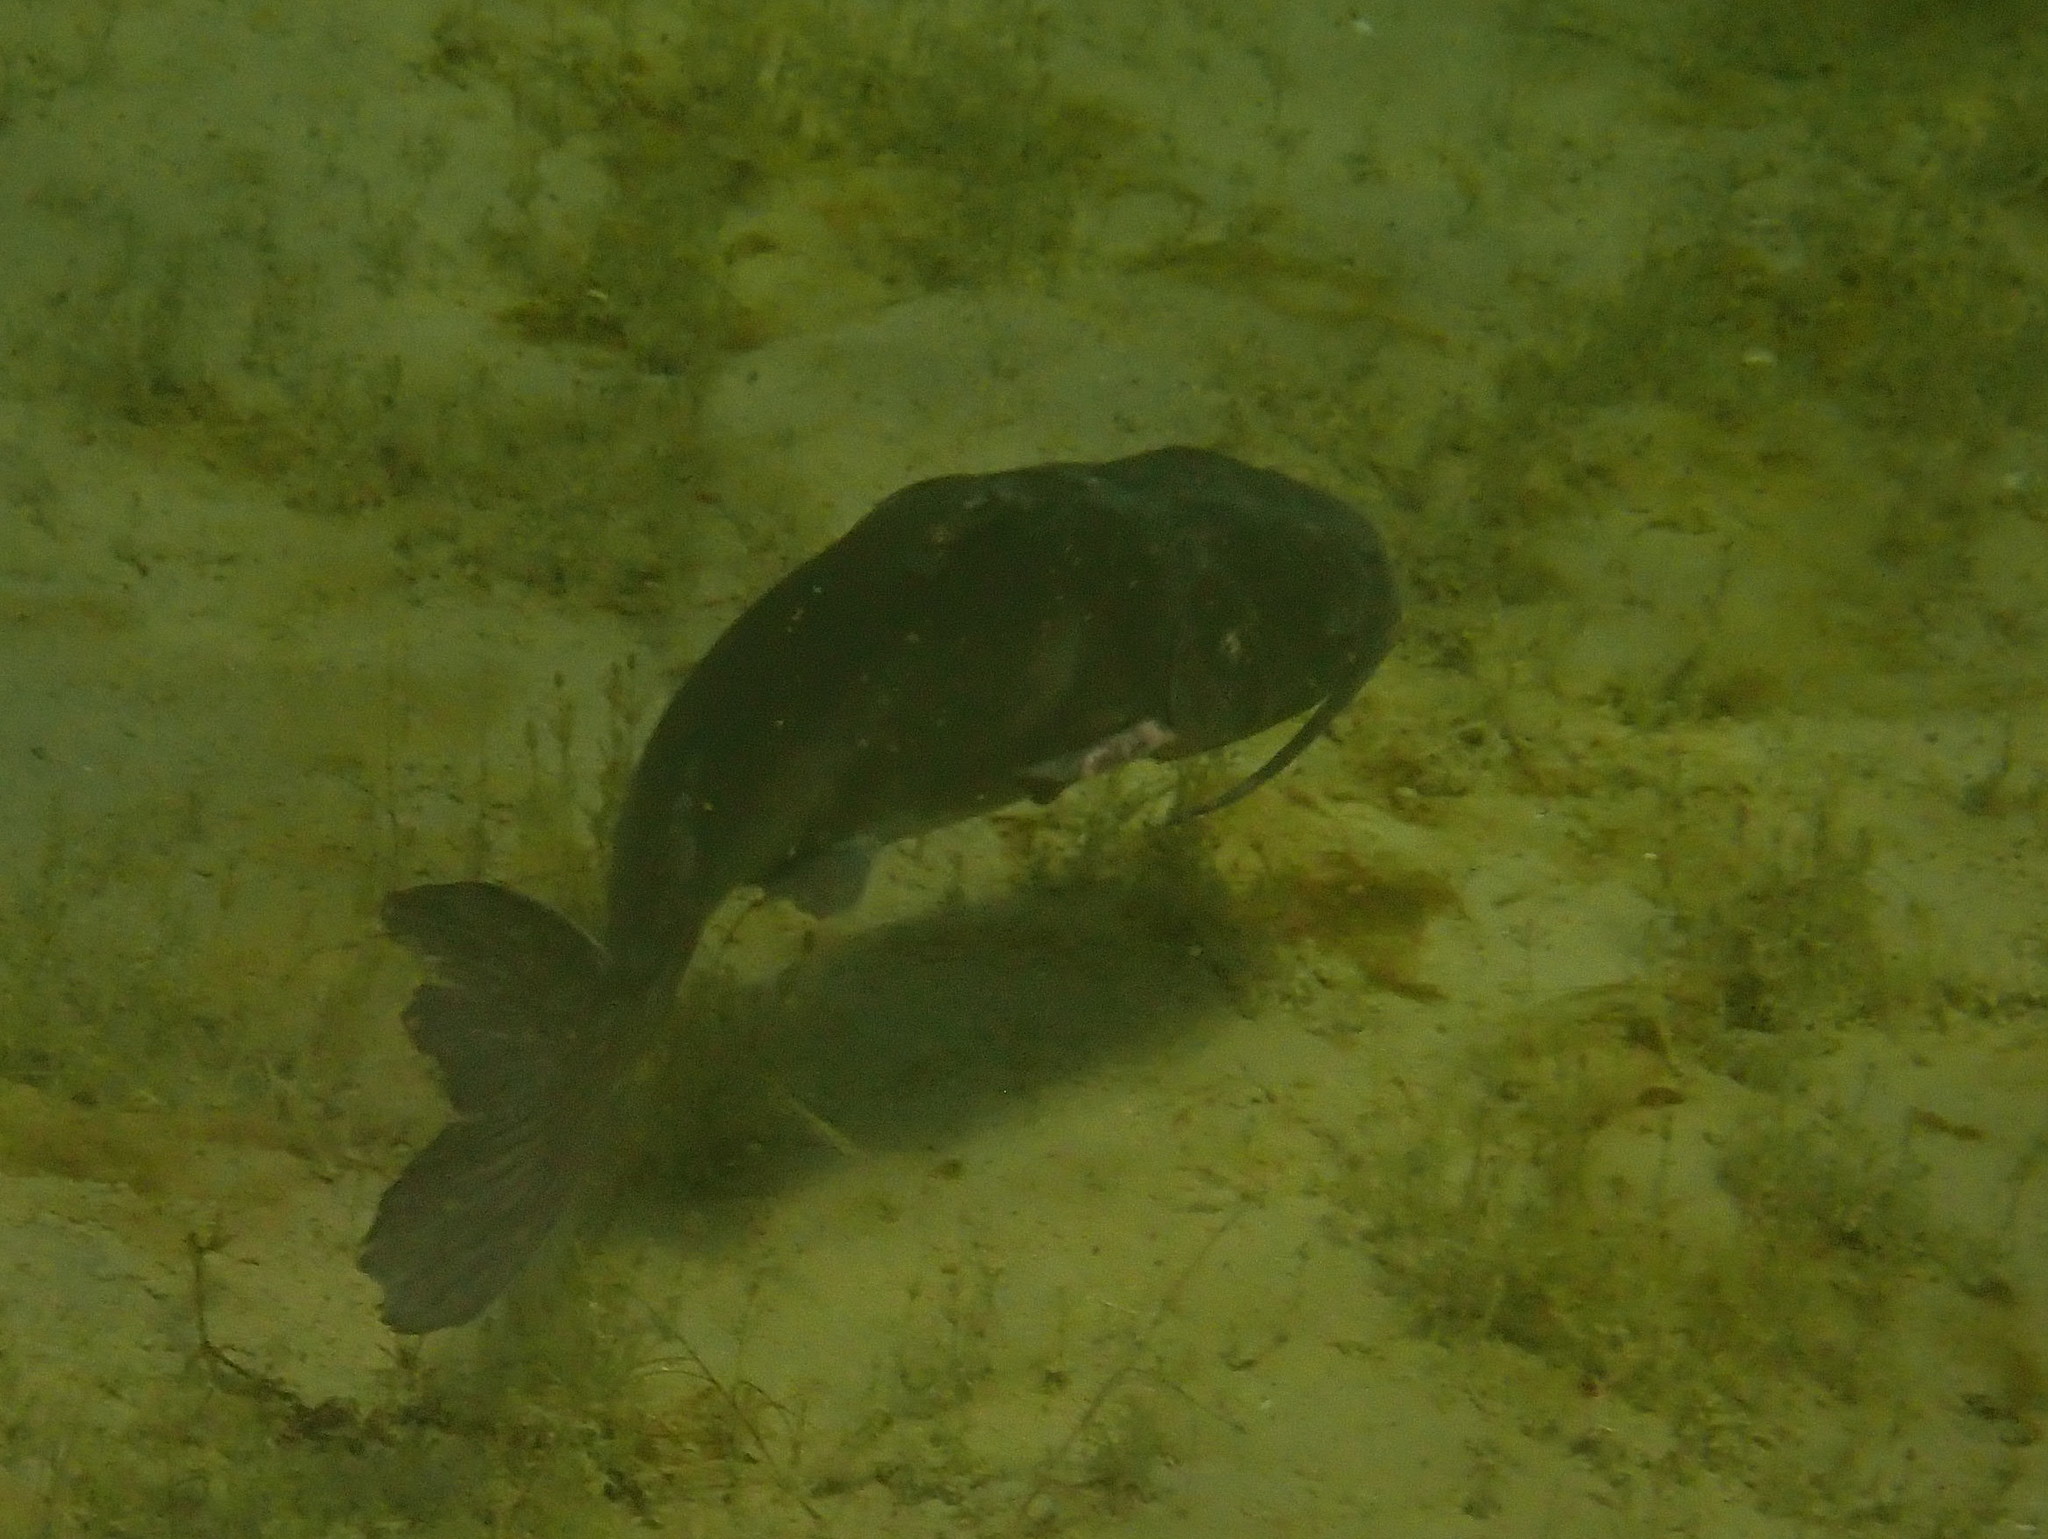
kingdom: Animalia
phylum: Chordata
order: Siluriformes
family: Ictaluridae
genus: Ictalurus
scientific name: Ictalurus punctatus
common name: Channel catfish
